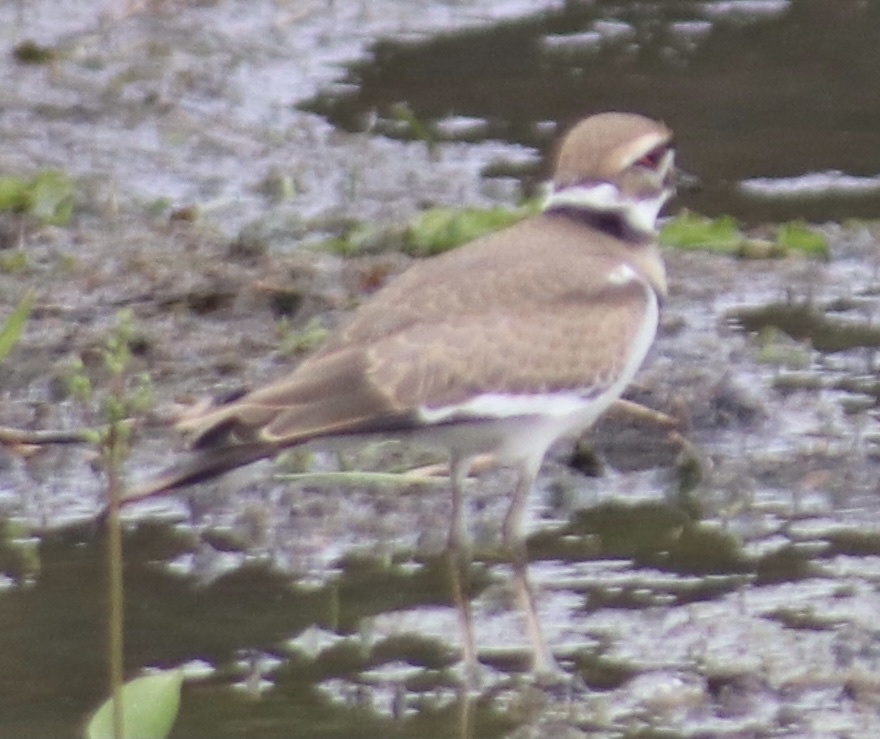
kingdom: Animalia
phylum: Chordata
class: Aves
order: Charadriiformes
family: Charadriidae
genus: Charadrius
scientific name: Charadrius vociferus
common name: Killdeer
